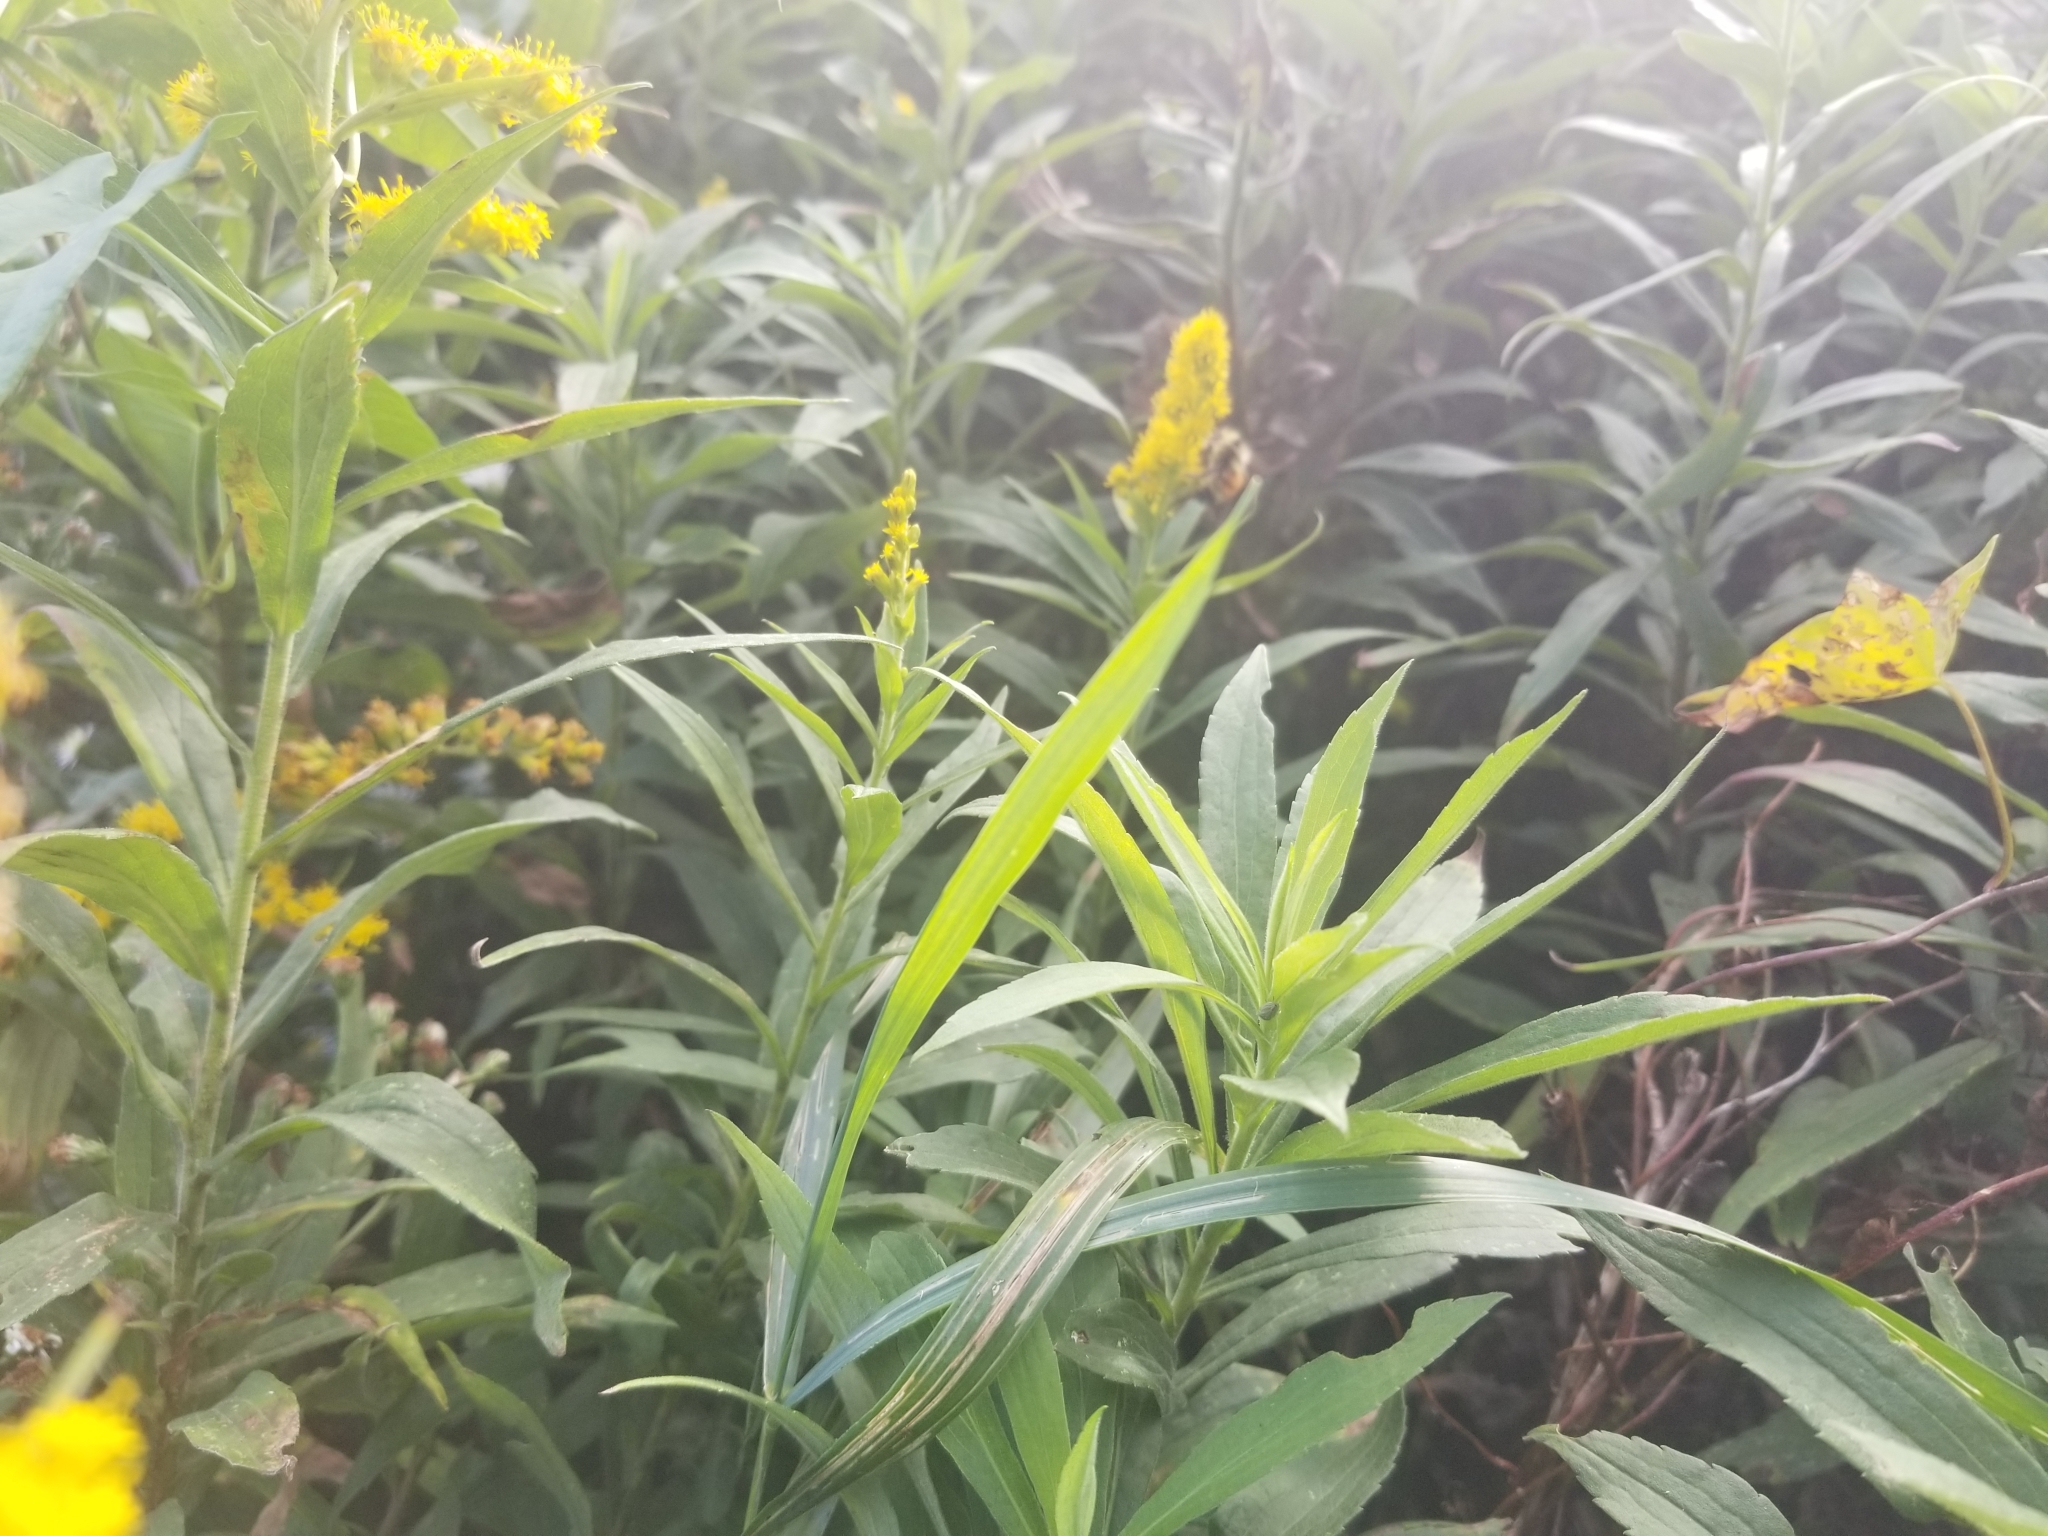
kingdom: Animalia
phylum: Arthropoda
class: Insecta
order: Hymenoptera
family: Apidae
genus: Bombus
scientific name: Bombus ternarius
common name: Tri-colored bumble bee
